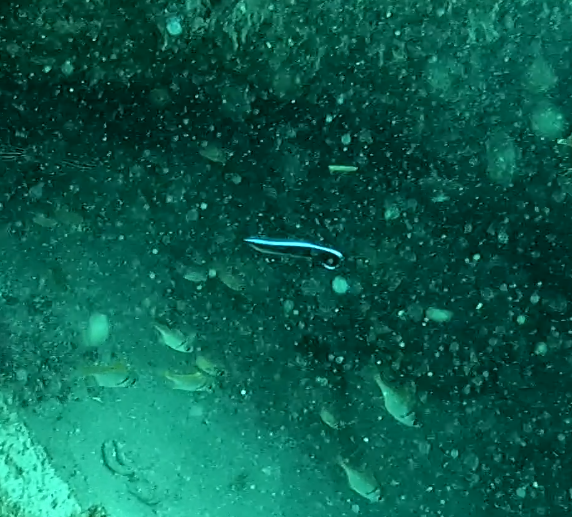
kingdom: Animalia
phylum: Chordata
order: Perciformes
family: Labridae
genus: Labroides
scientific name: Labroides dimidiatus
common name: Blue diesel wrasse
